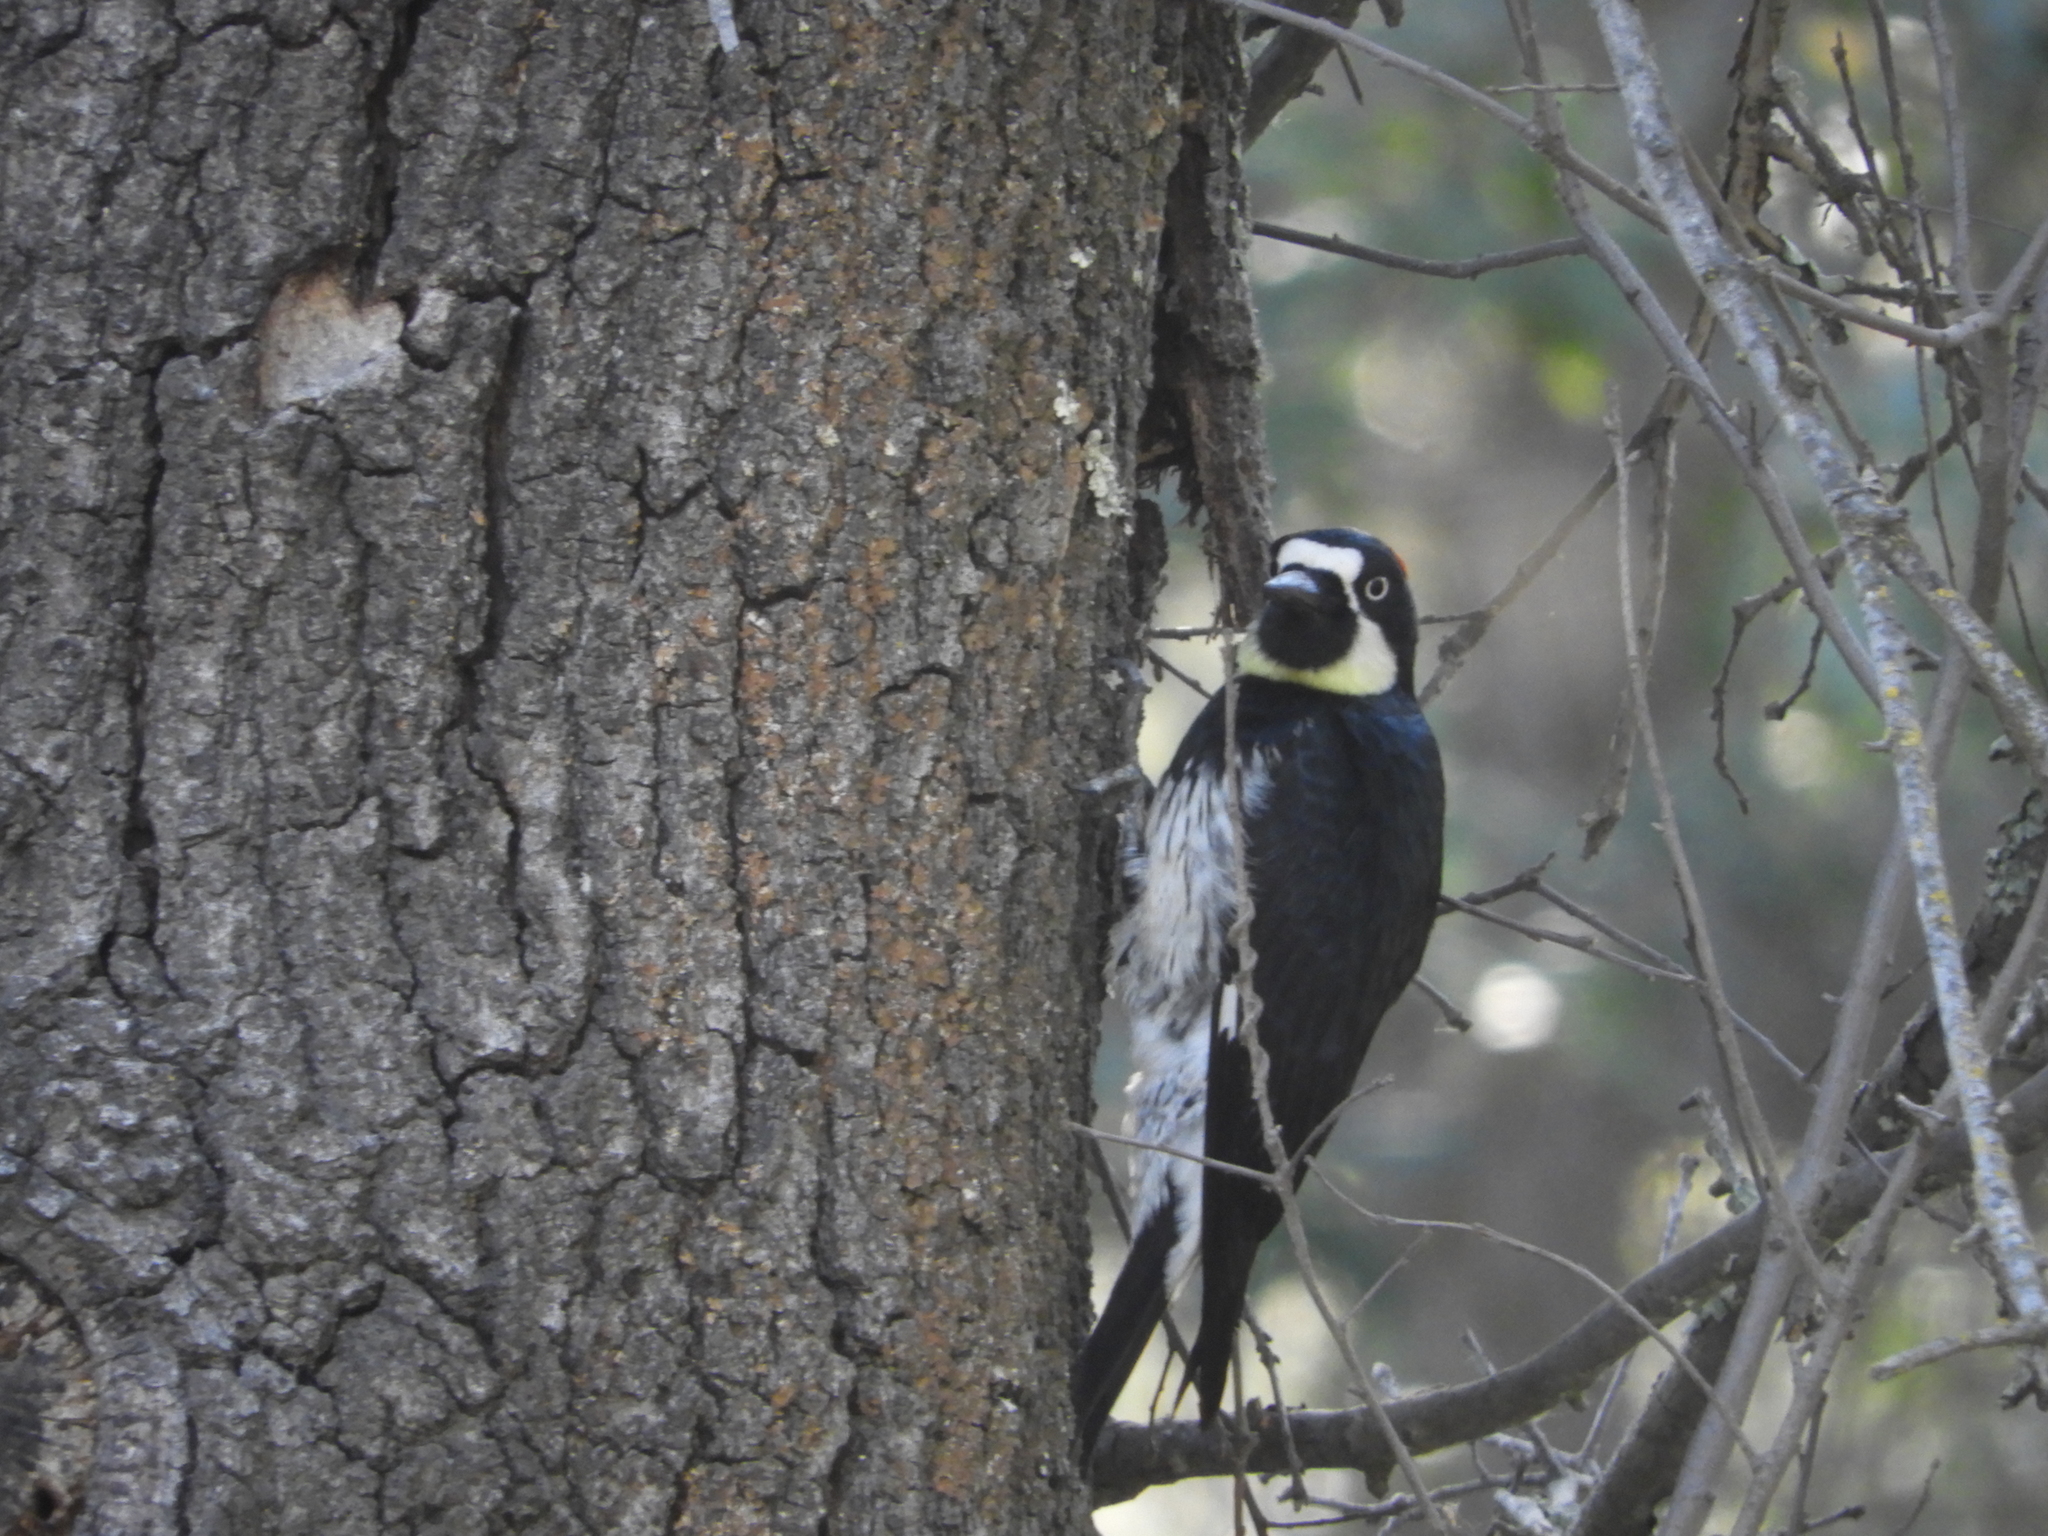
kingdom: Animalia
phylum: Chordata
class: Aves
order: Piciformes
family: Picidae
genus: Melanerpes
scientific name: Melanerpes formicivorus
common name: Acorn woodpecker
